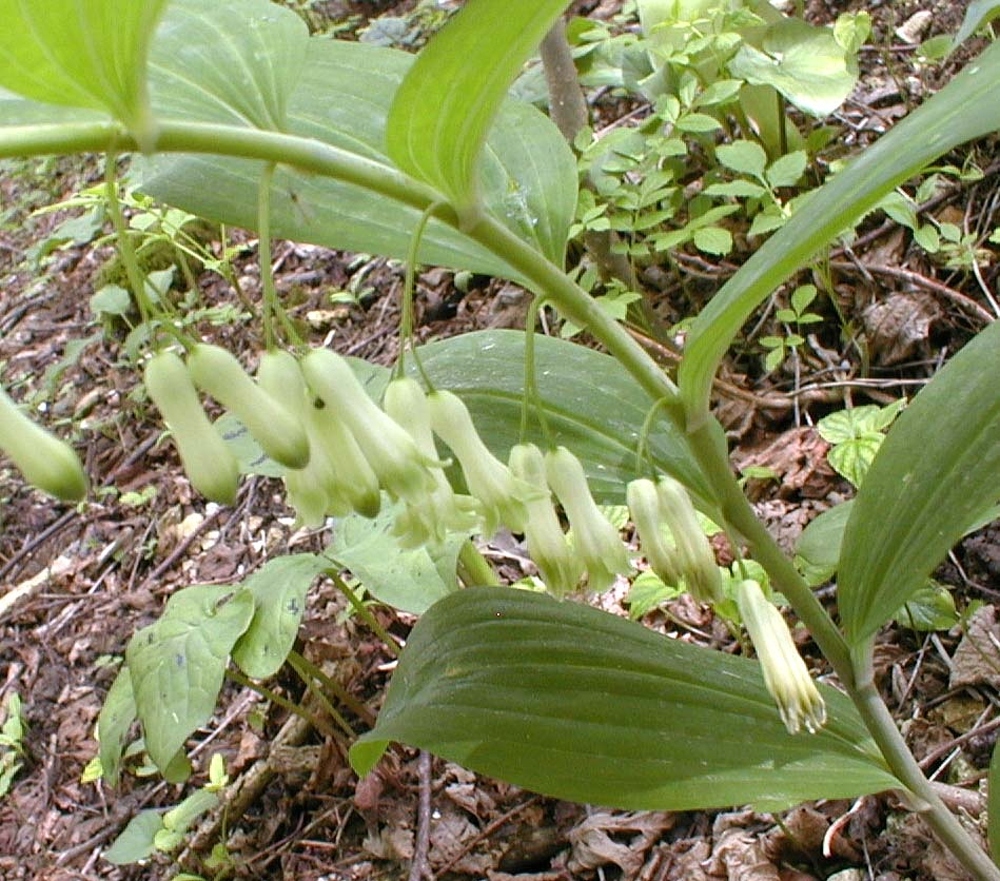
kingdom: Plantae
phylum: Tracheophyta
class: Liliopsida
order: Asparagales
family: Asparagaceae
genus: Polygonatum
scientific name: Polygonatum multiflorum
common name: Solomon's-seal
